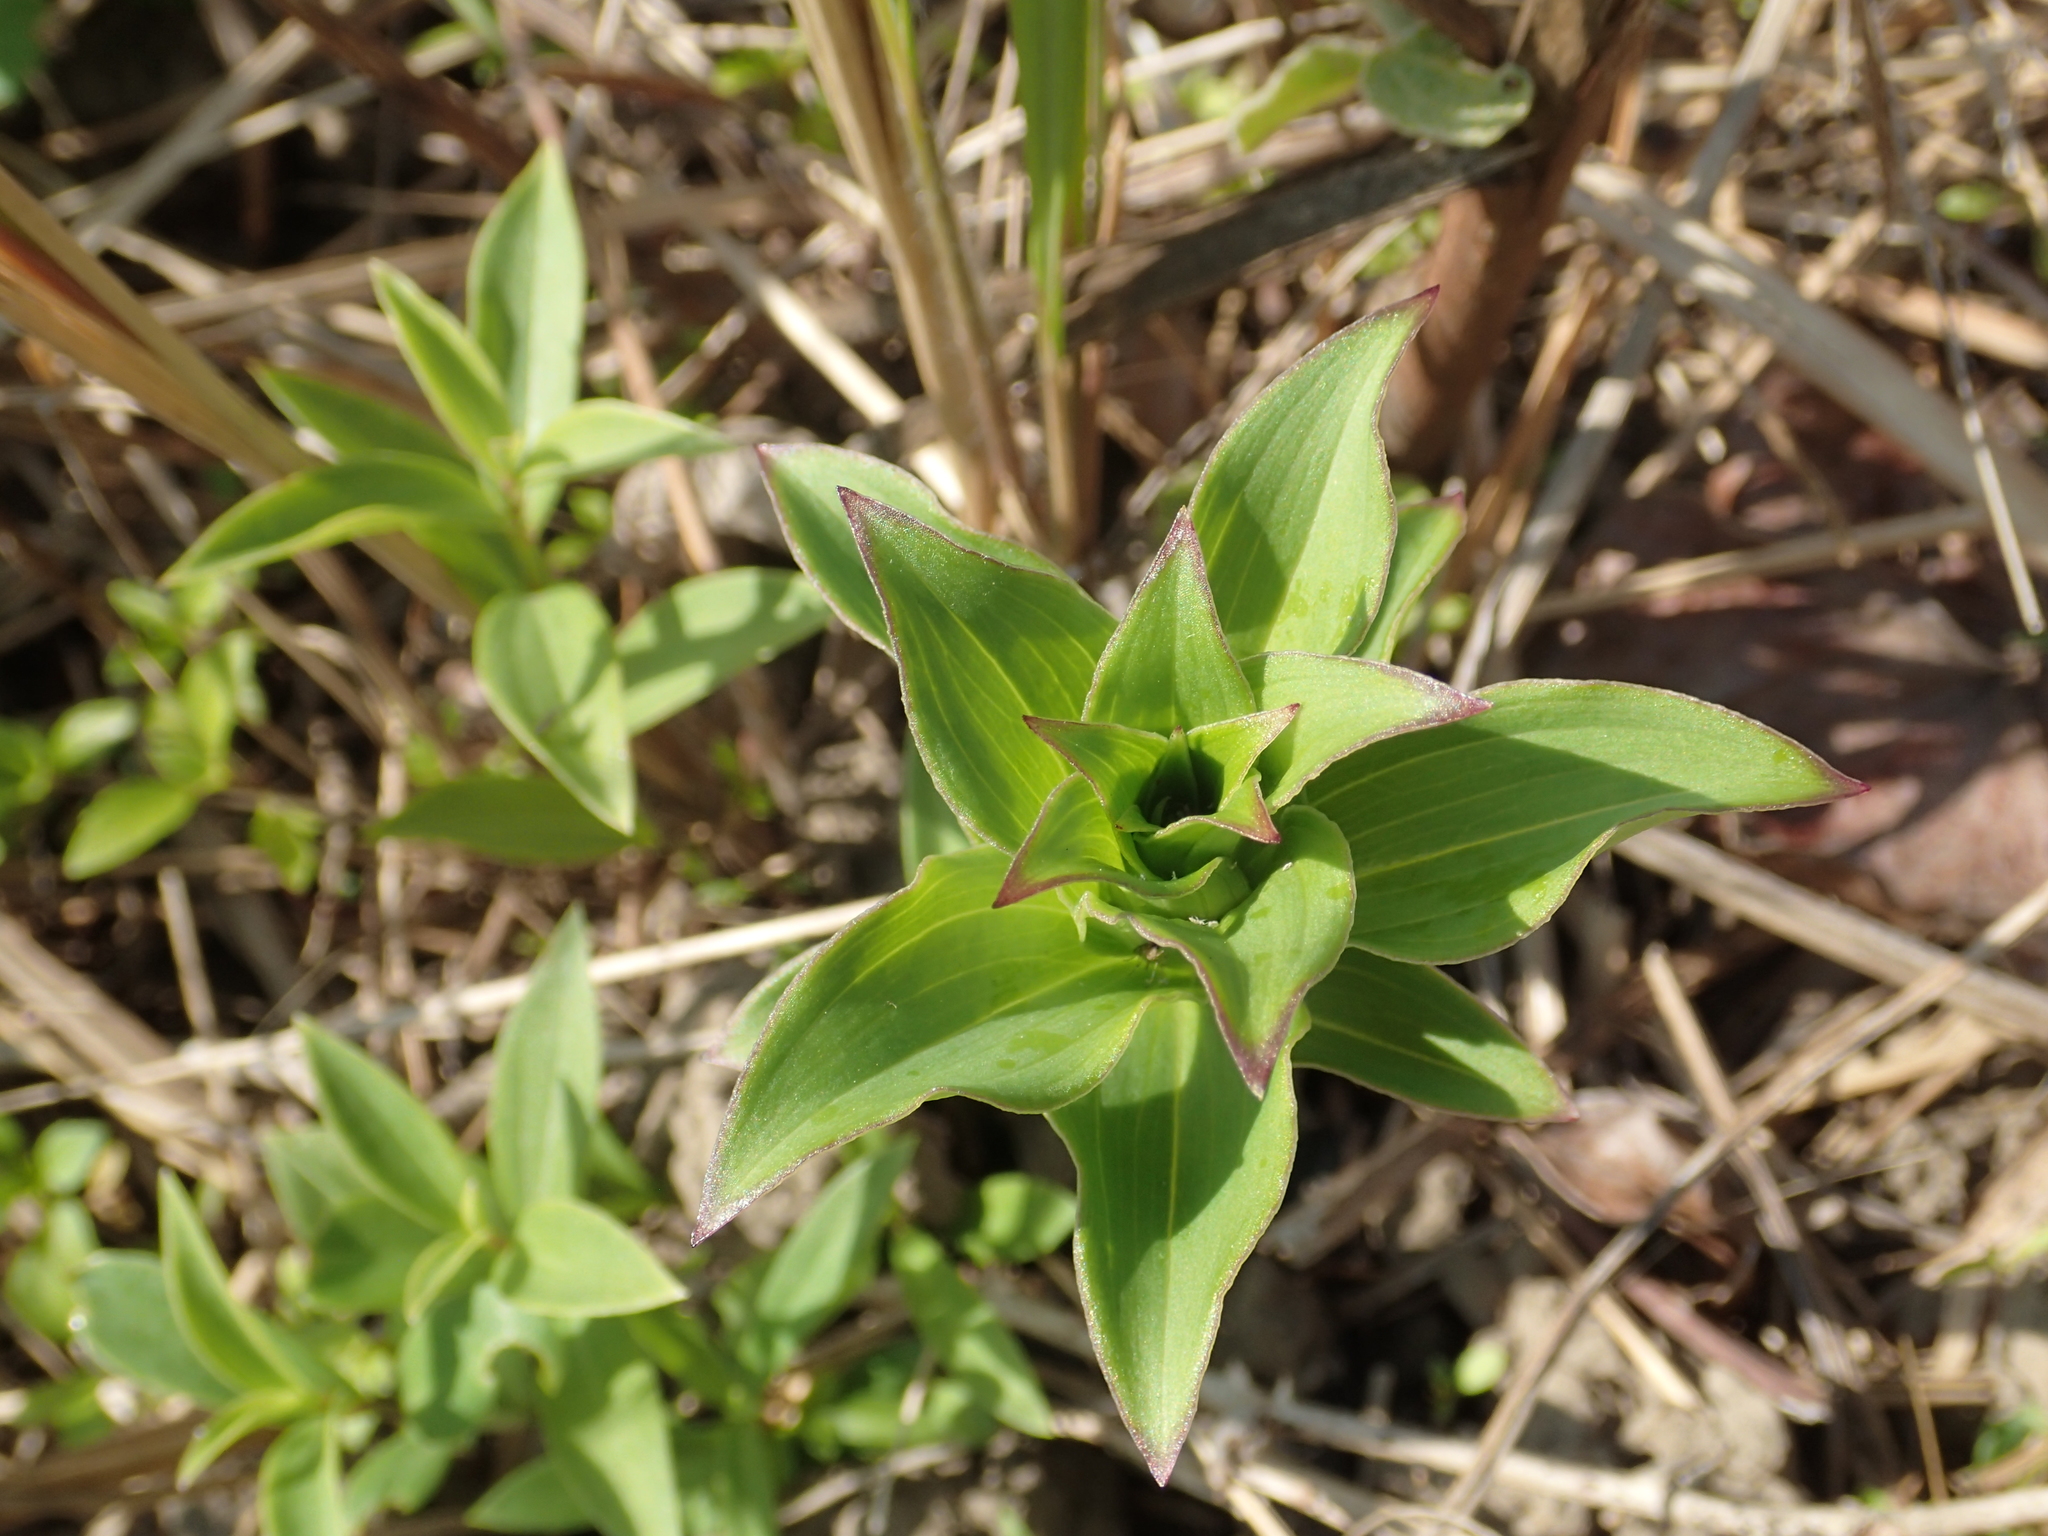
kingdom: Plantae
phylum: Tracheophyta
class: Liliopsida
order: Liliales
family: Liliaceae
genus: Lilium
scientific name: Lilium brownii
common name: Brown's lily
